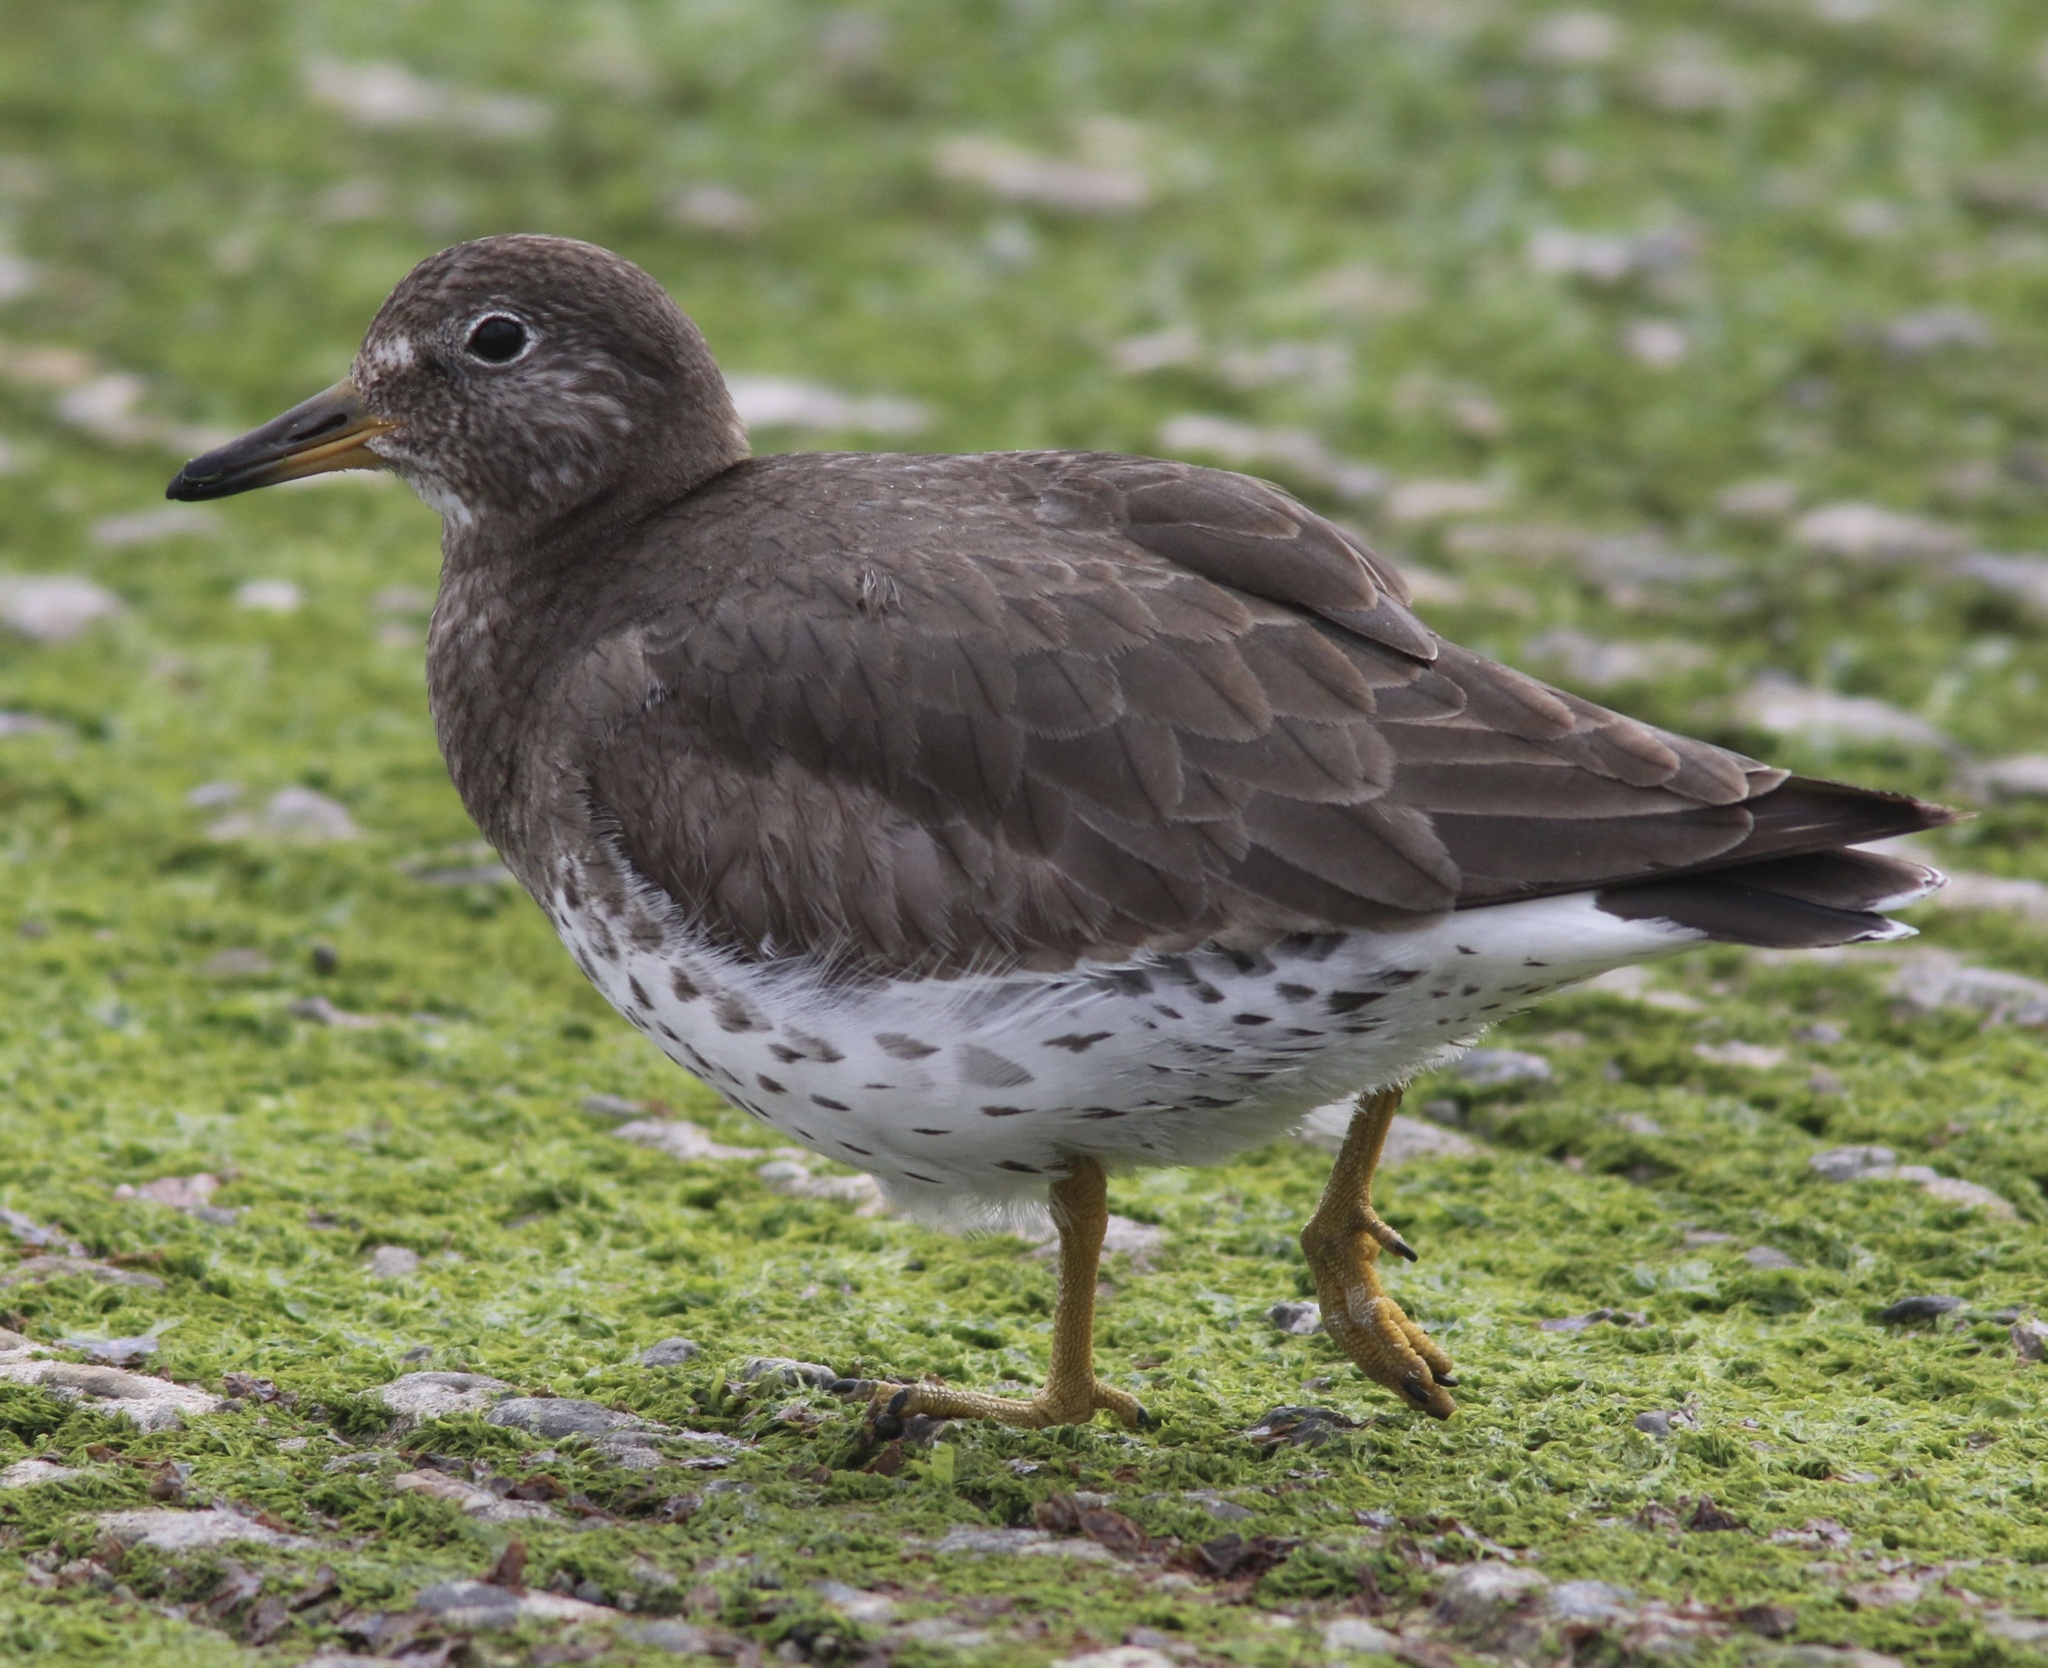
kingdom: Animalia
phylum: Chordata
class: Aves
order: Charadriiformes
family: Scolopacidae
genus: Calidris
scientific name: Calidris virgata
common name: Surfbird
